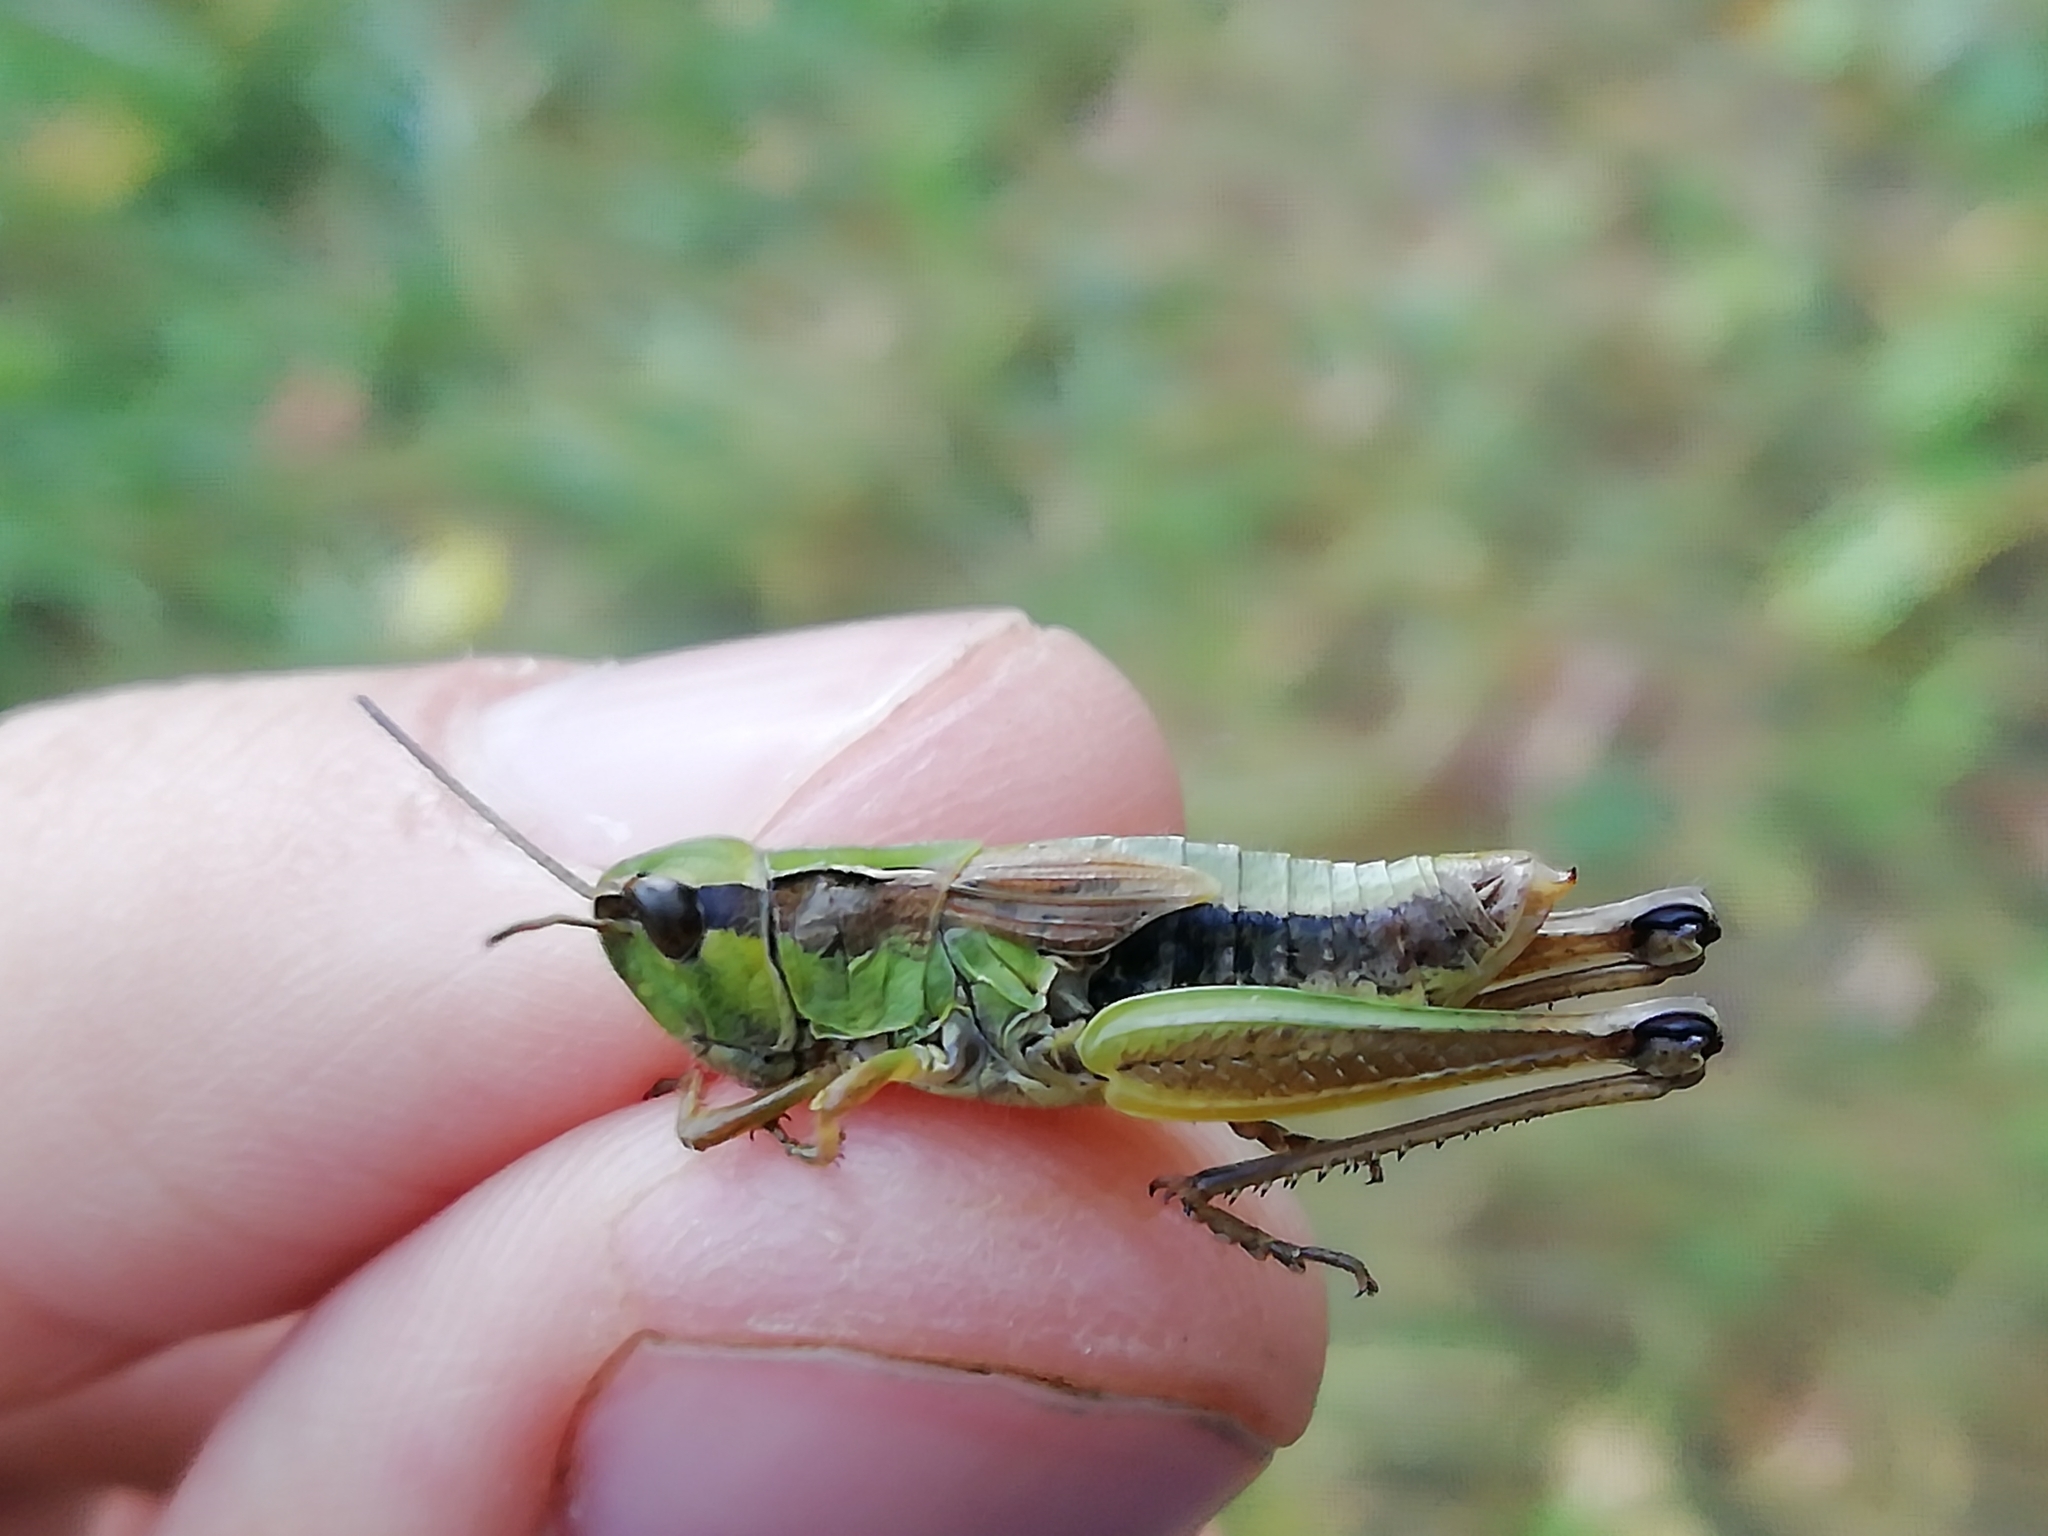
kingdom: Animalia
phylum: Arthropoda
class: Insecta
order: Orthoptera
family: Acrididae
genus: Chorthippus
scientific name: Chorthippus fallax
